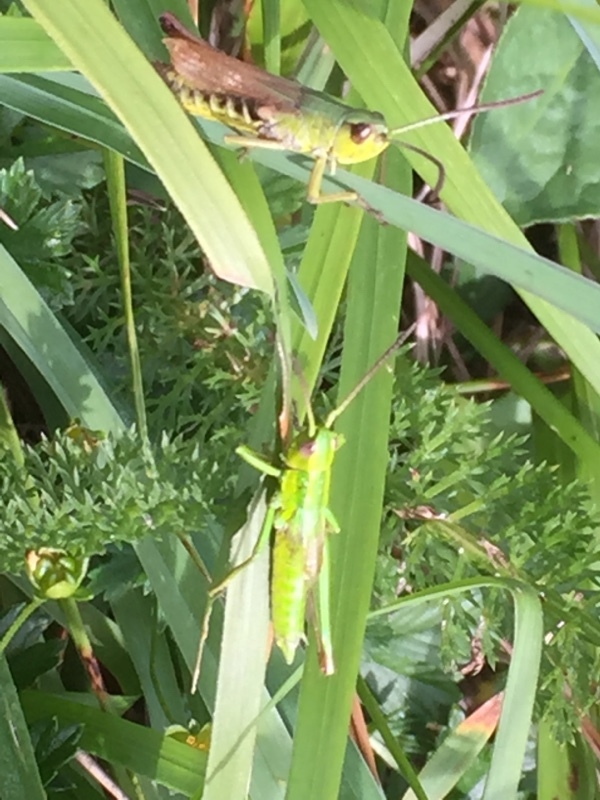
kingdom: Animalia
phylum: Arthropoda
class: Insecta
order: Orthoptera
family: Acrididae
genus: Euthystira
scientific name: Euthystira brachyptera
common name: Small gold grasshopper
